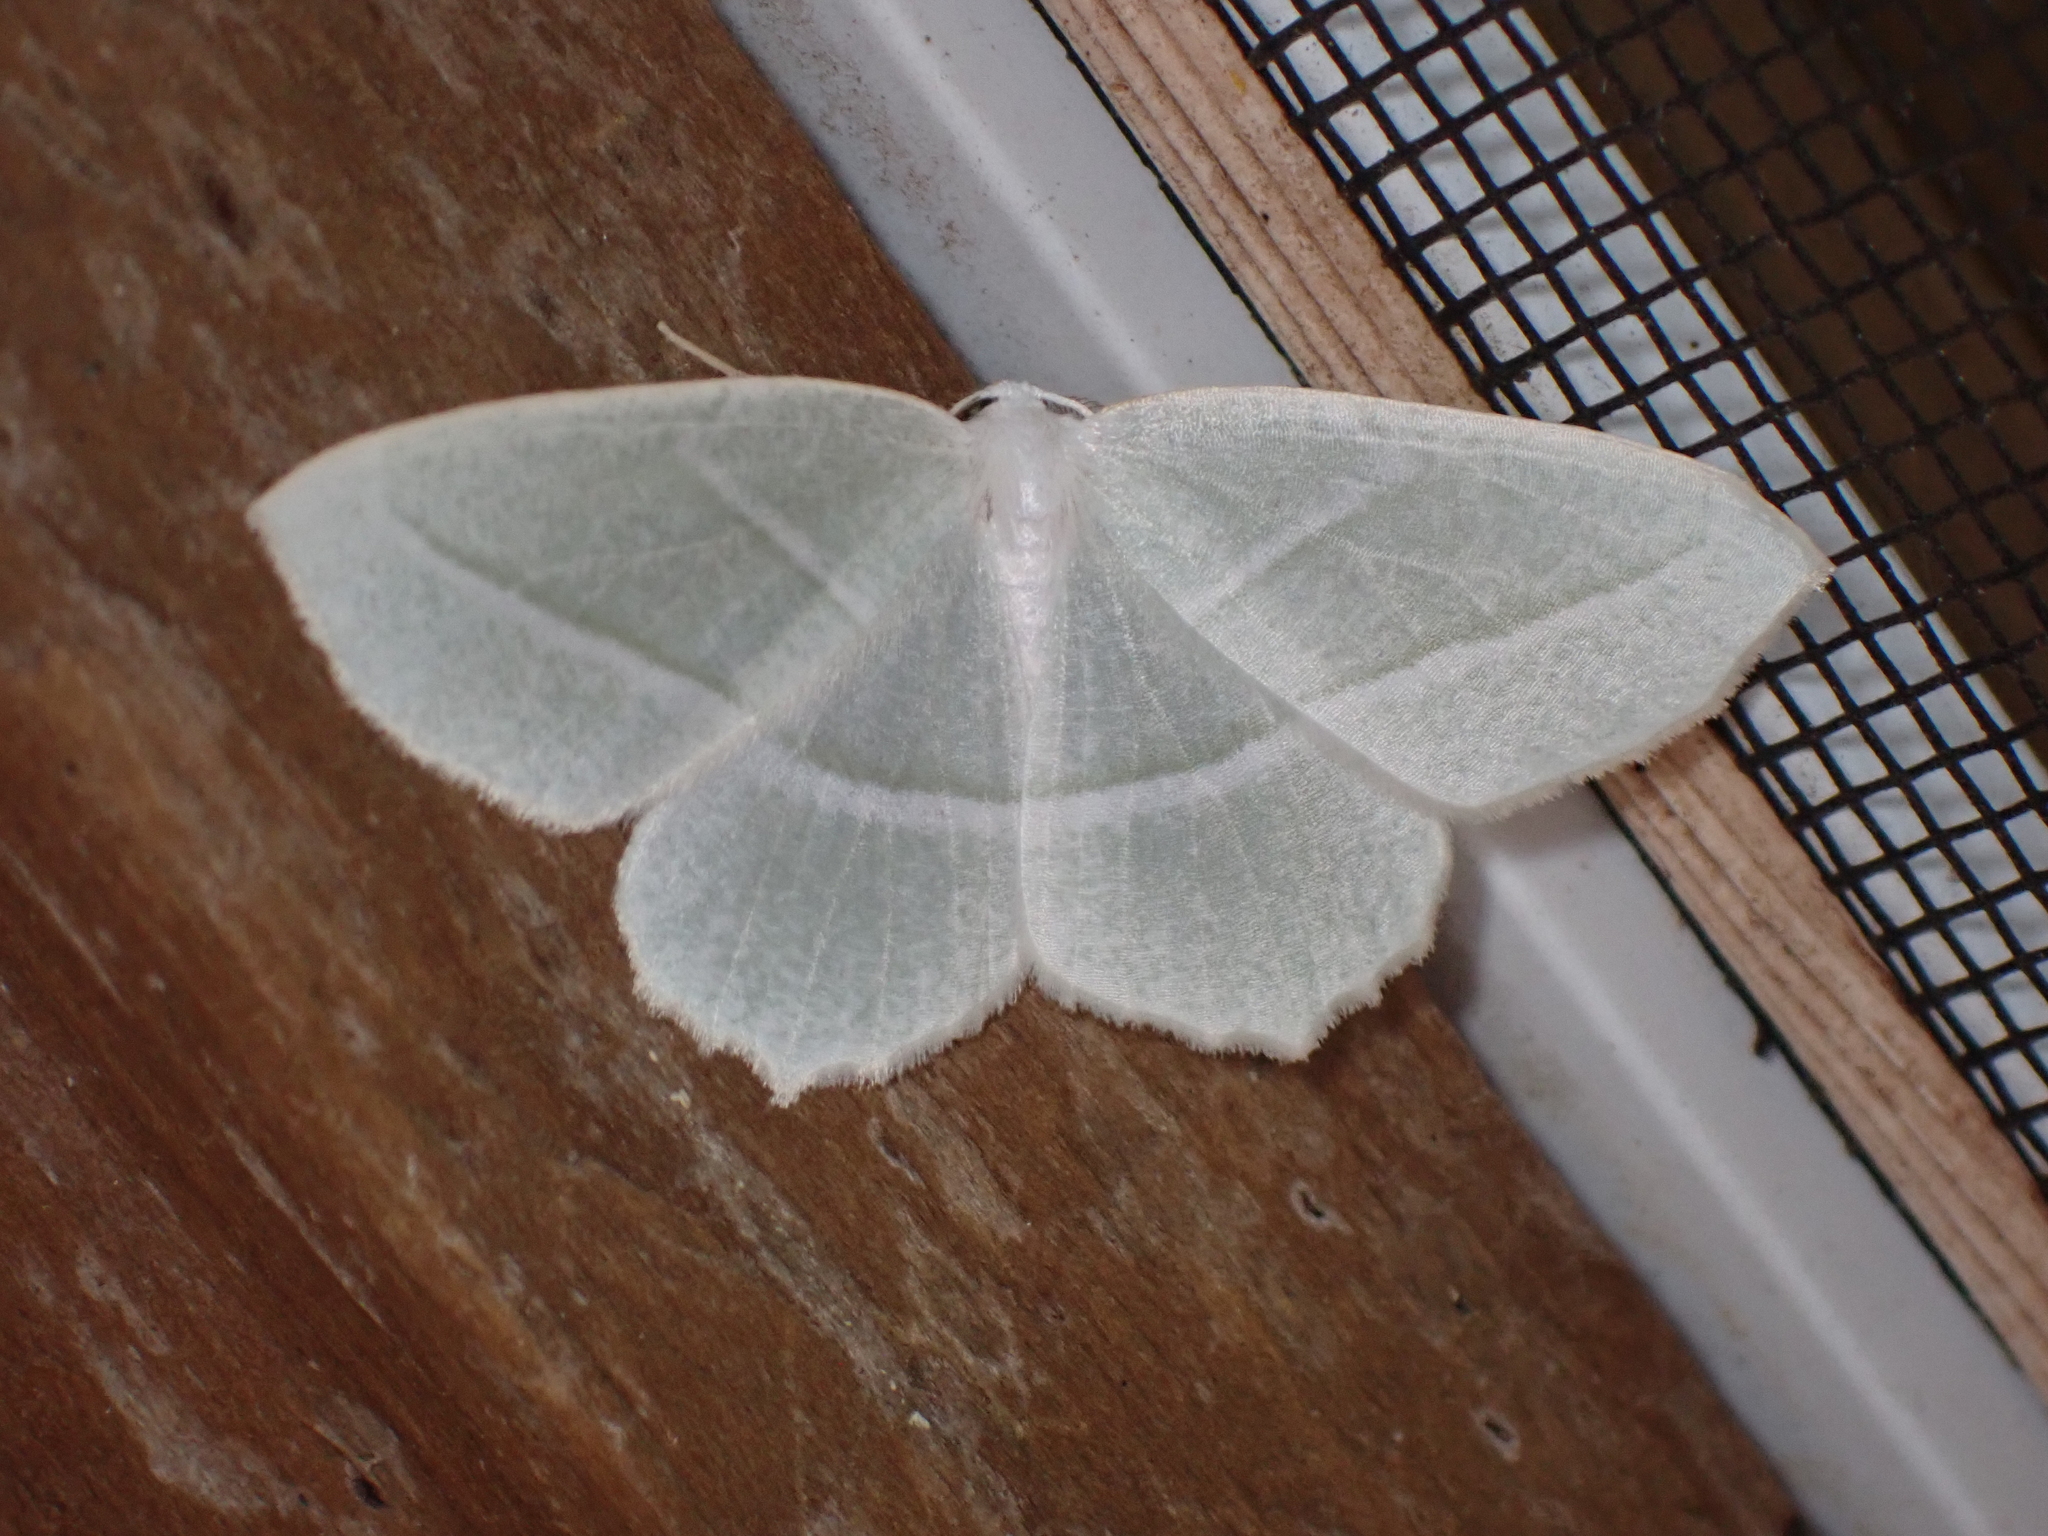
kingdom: Animalia
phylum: Arthropoda
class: Insecta
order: Lepidoptera
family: Geometridae
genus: Campaea
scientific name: Campaea perlata
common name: Fringed looper
